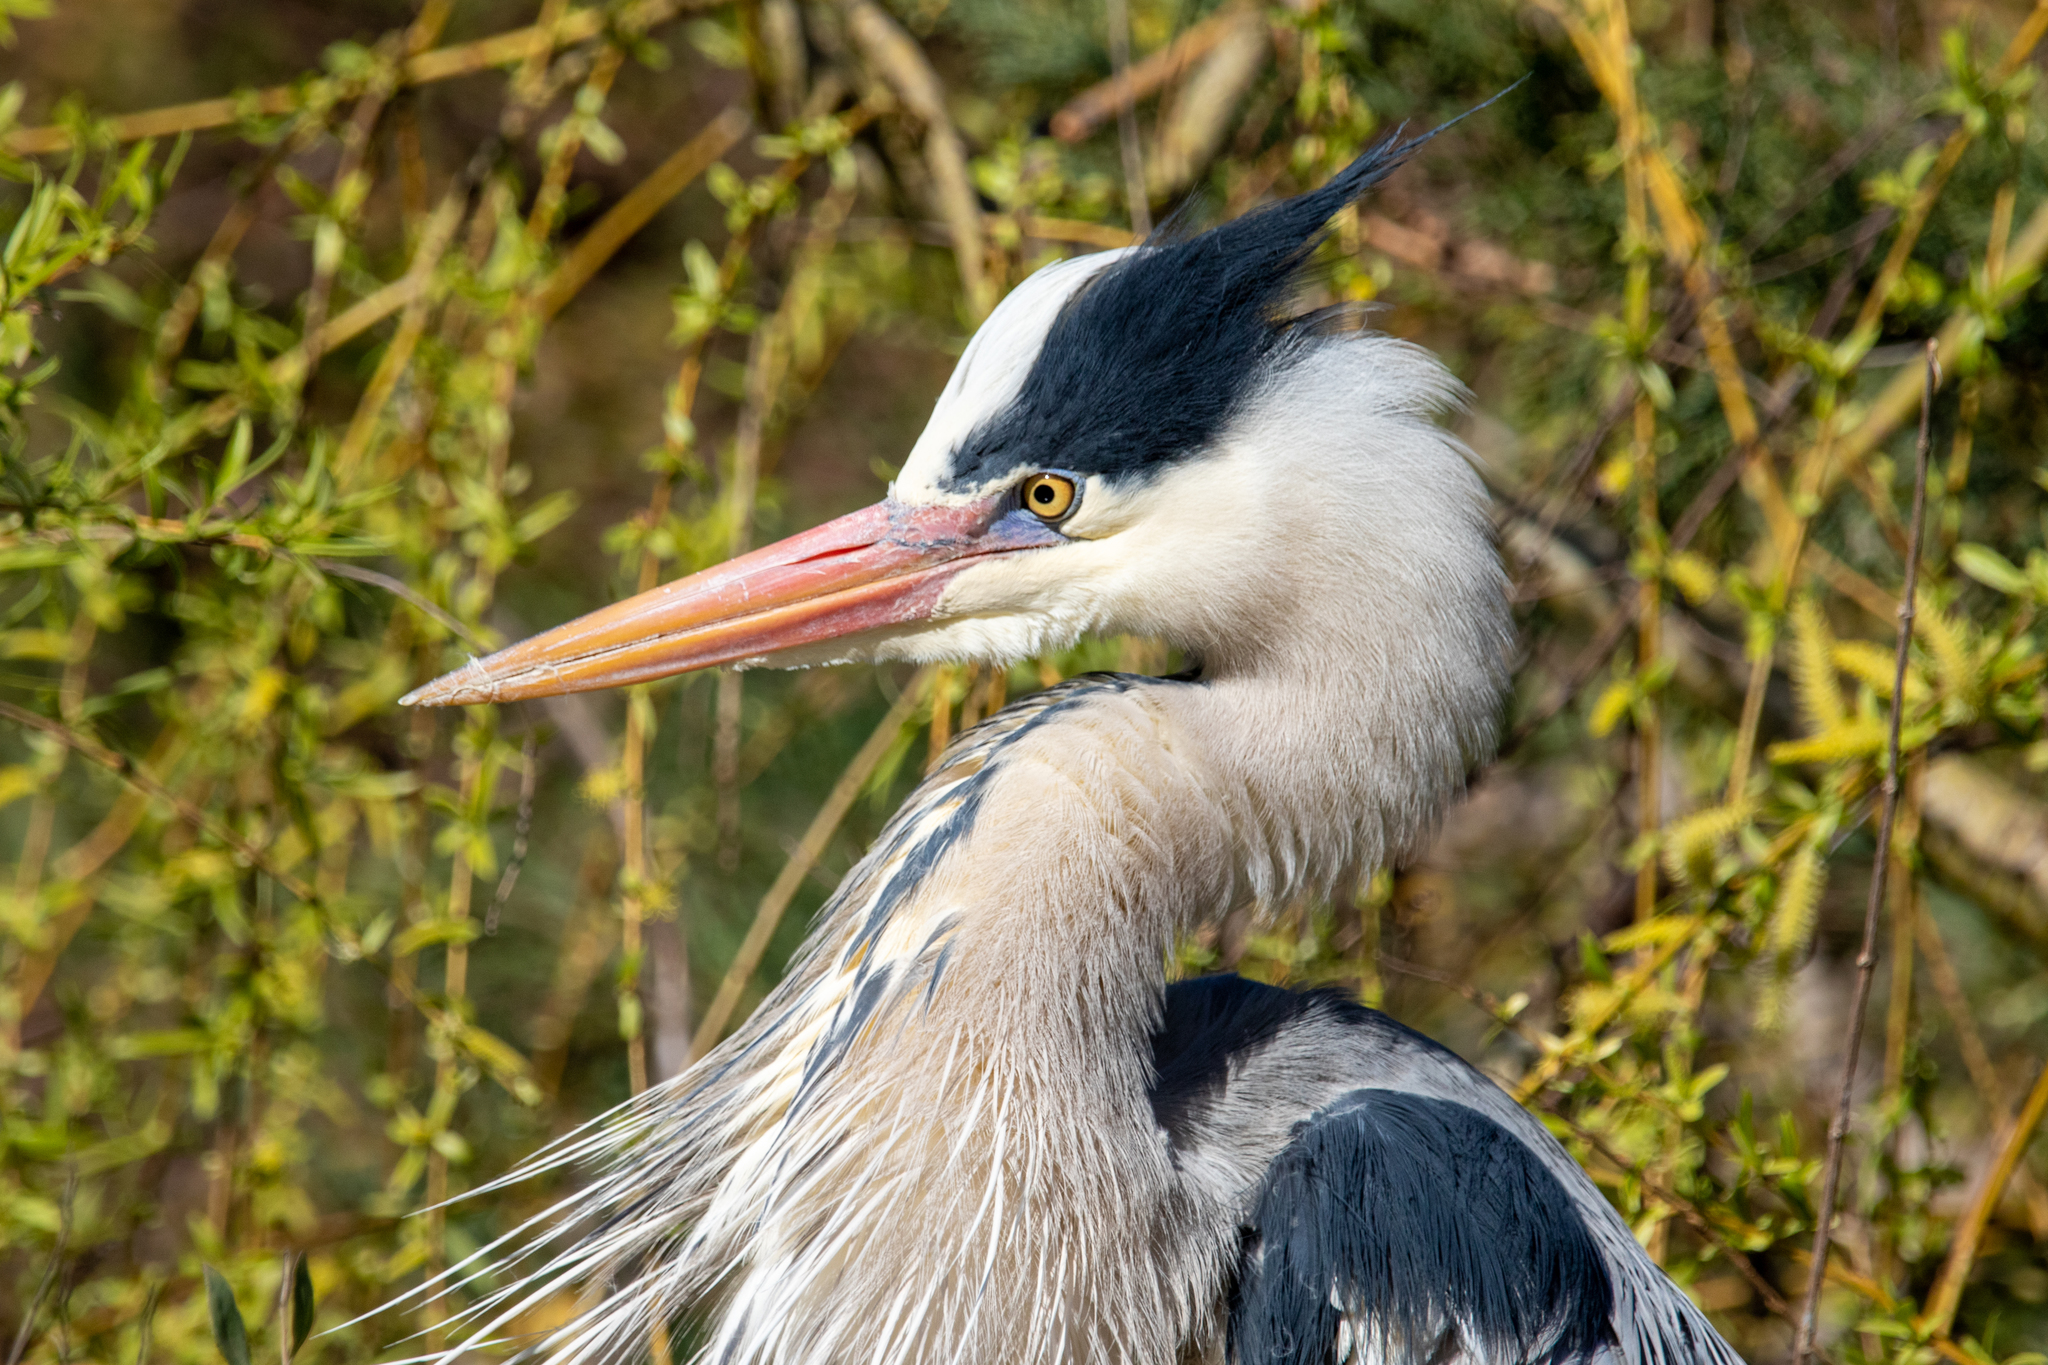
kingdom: Animalia
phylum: Chordata
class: Aves
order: Pelecaniformes
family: Ardeidae
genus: Ardea
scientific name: Ardea cinerea
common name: Grey heron
